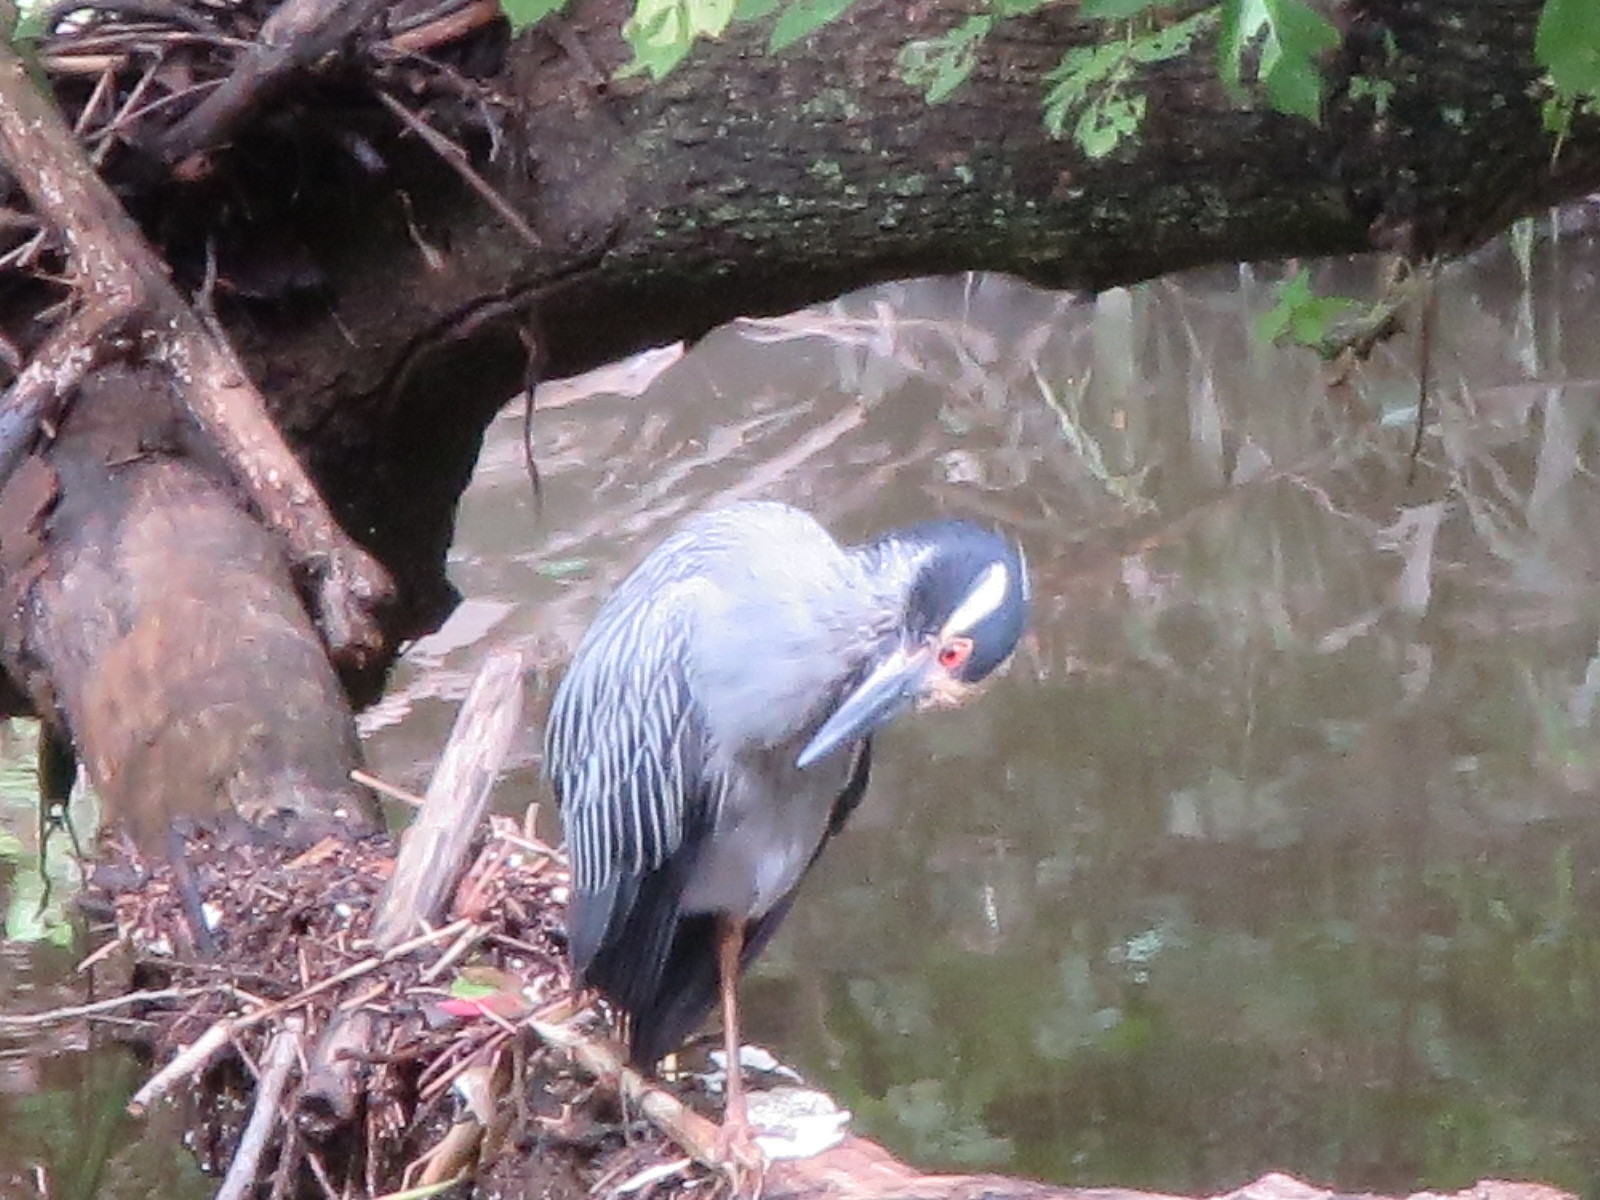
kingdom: Animalia
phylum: Chordata
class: Aves
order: Pelecaniformes
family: Ardeidae
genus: Nyctanassa
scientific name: Nyctanassa violacea
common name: Yellow-crowned night heron
